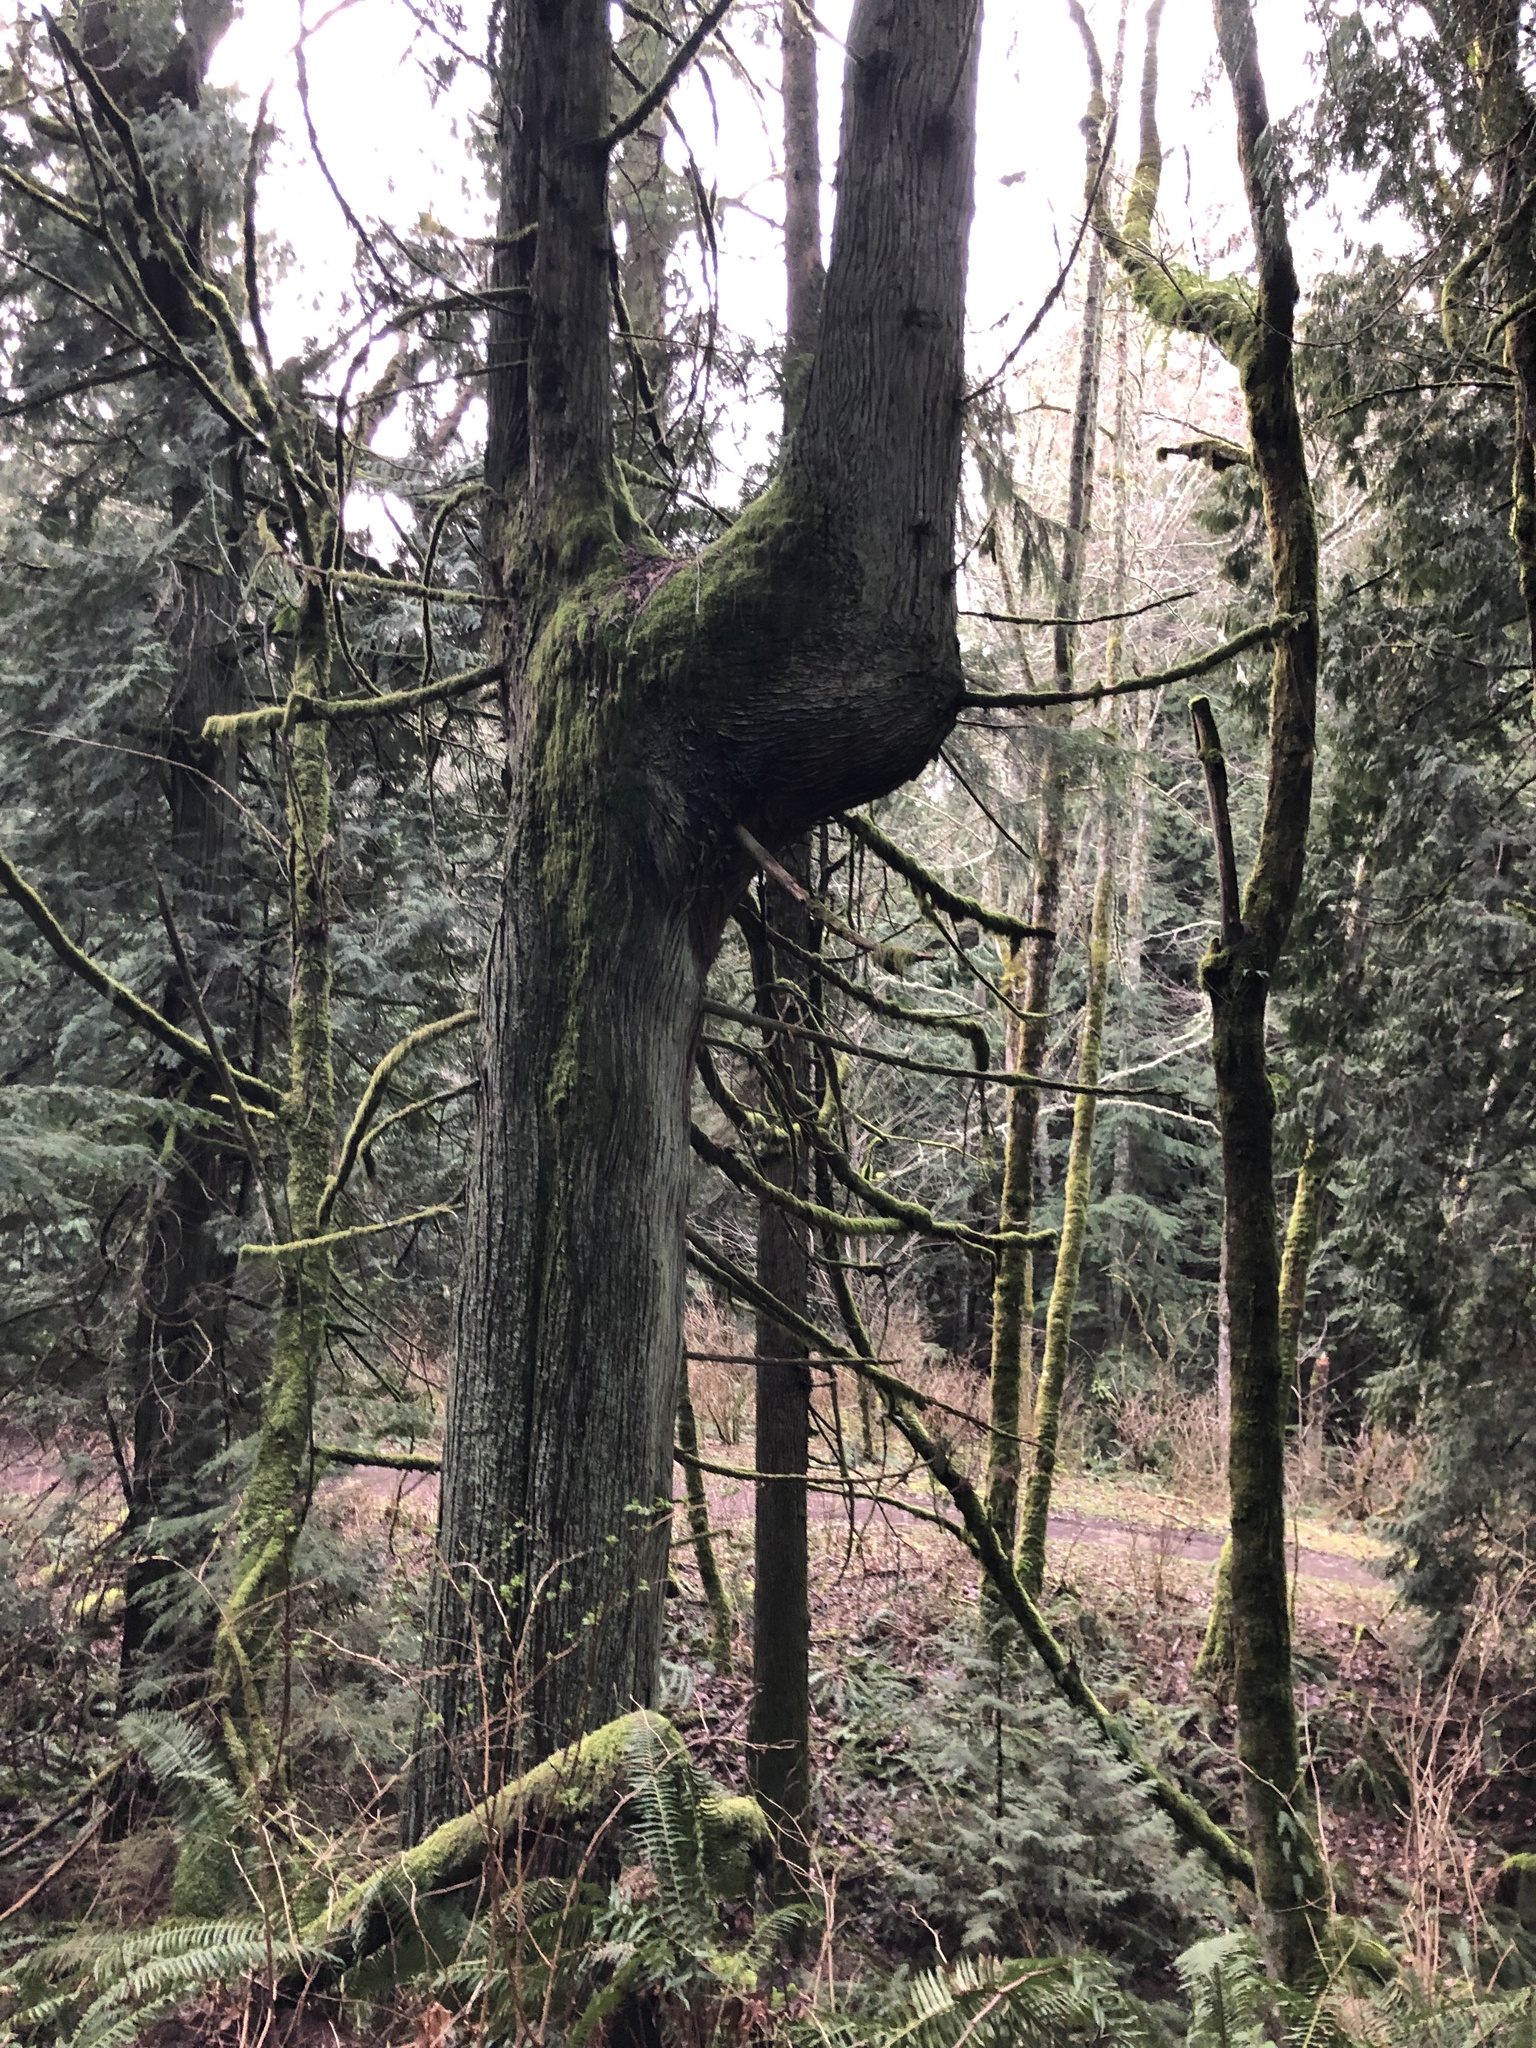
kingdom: Plantae
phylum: Tracheophyta
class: Pinopsida
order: Pinales
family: Cupressaceae
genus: Thuja
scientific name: Thuja plicata
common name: Western red-cedar
